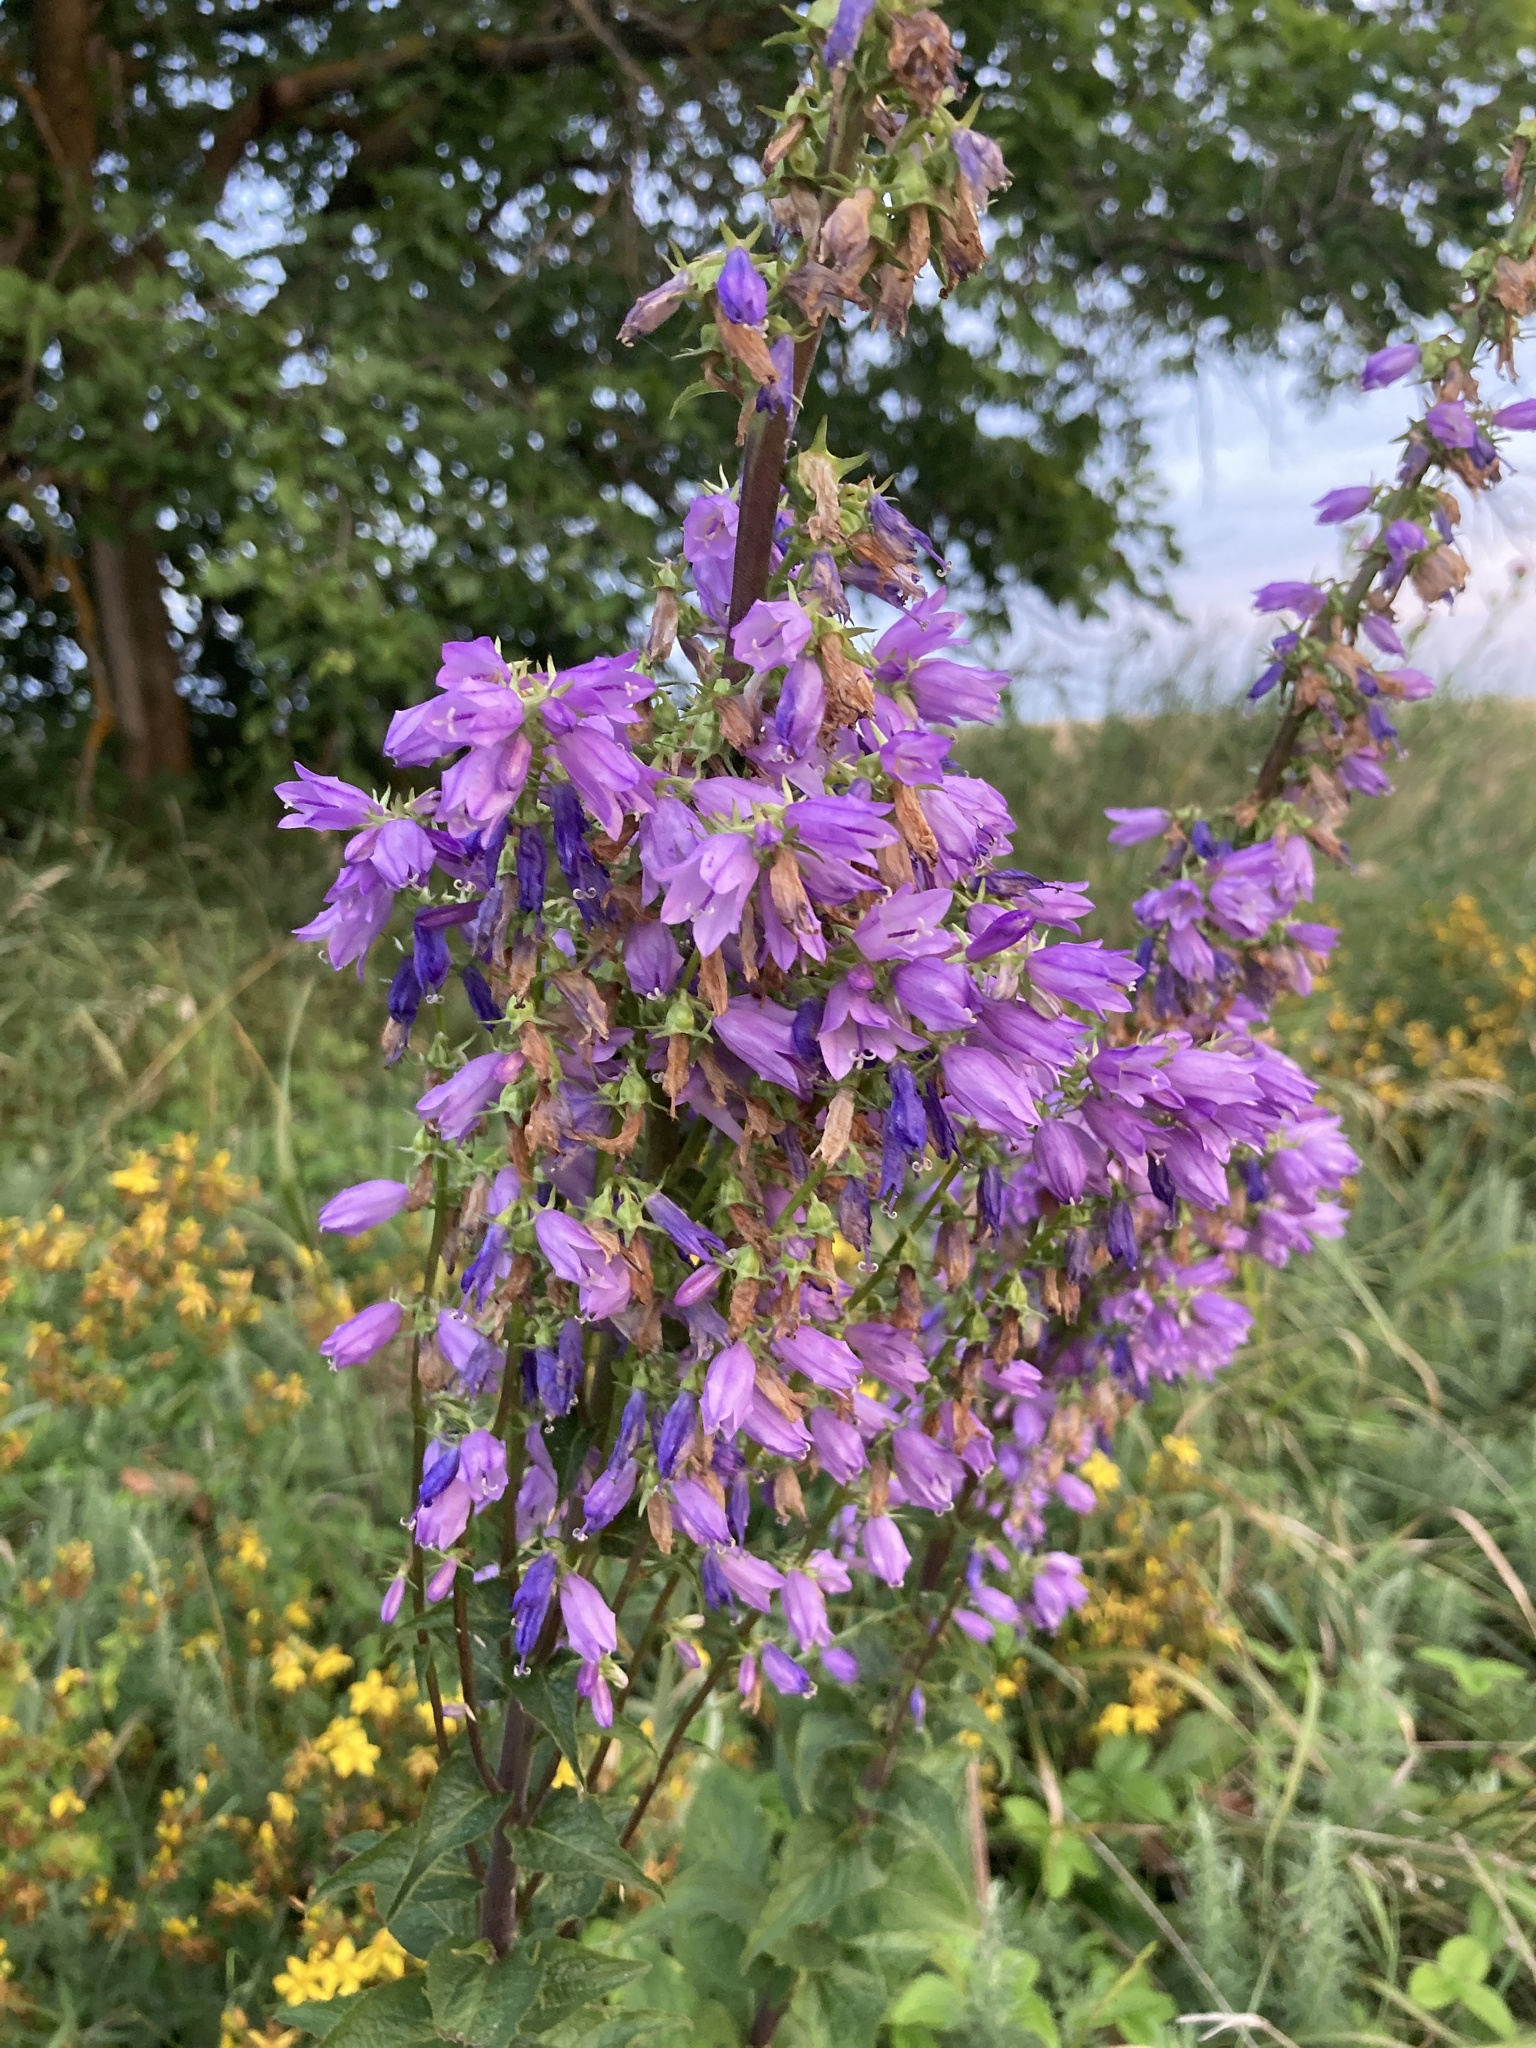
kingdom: Plantae
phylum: Tracheophyta
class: Magnoliopsida
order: Asterales
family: Campanulaceae
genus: Campanula
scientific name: Campanula bononiensis
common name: Pale bellflower
